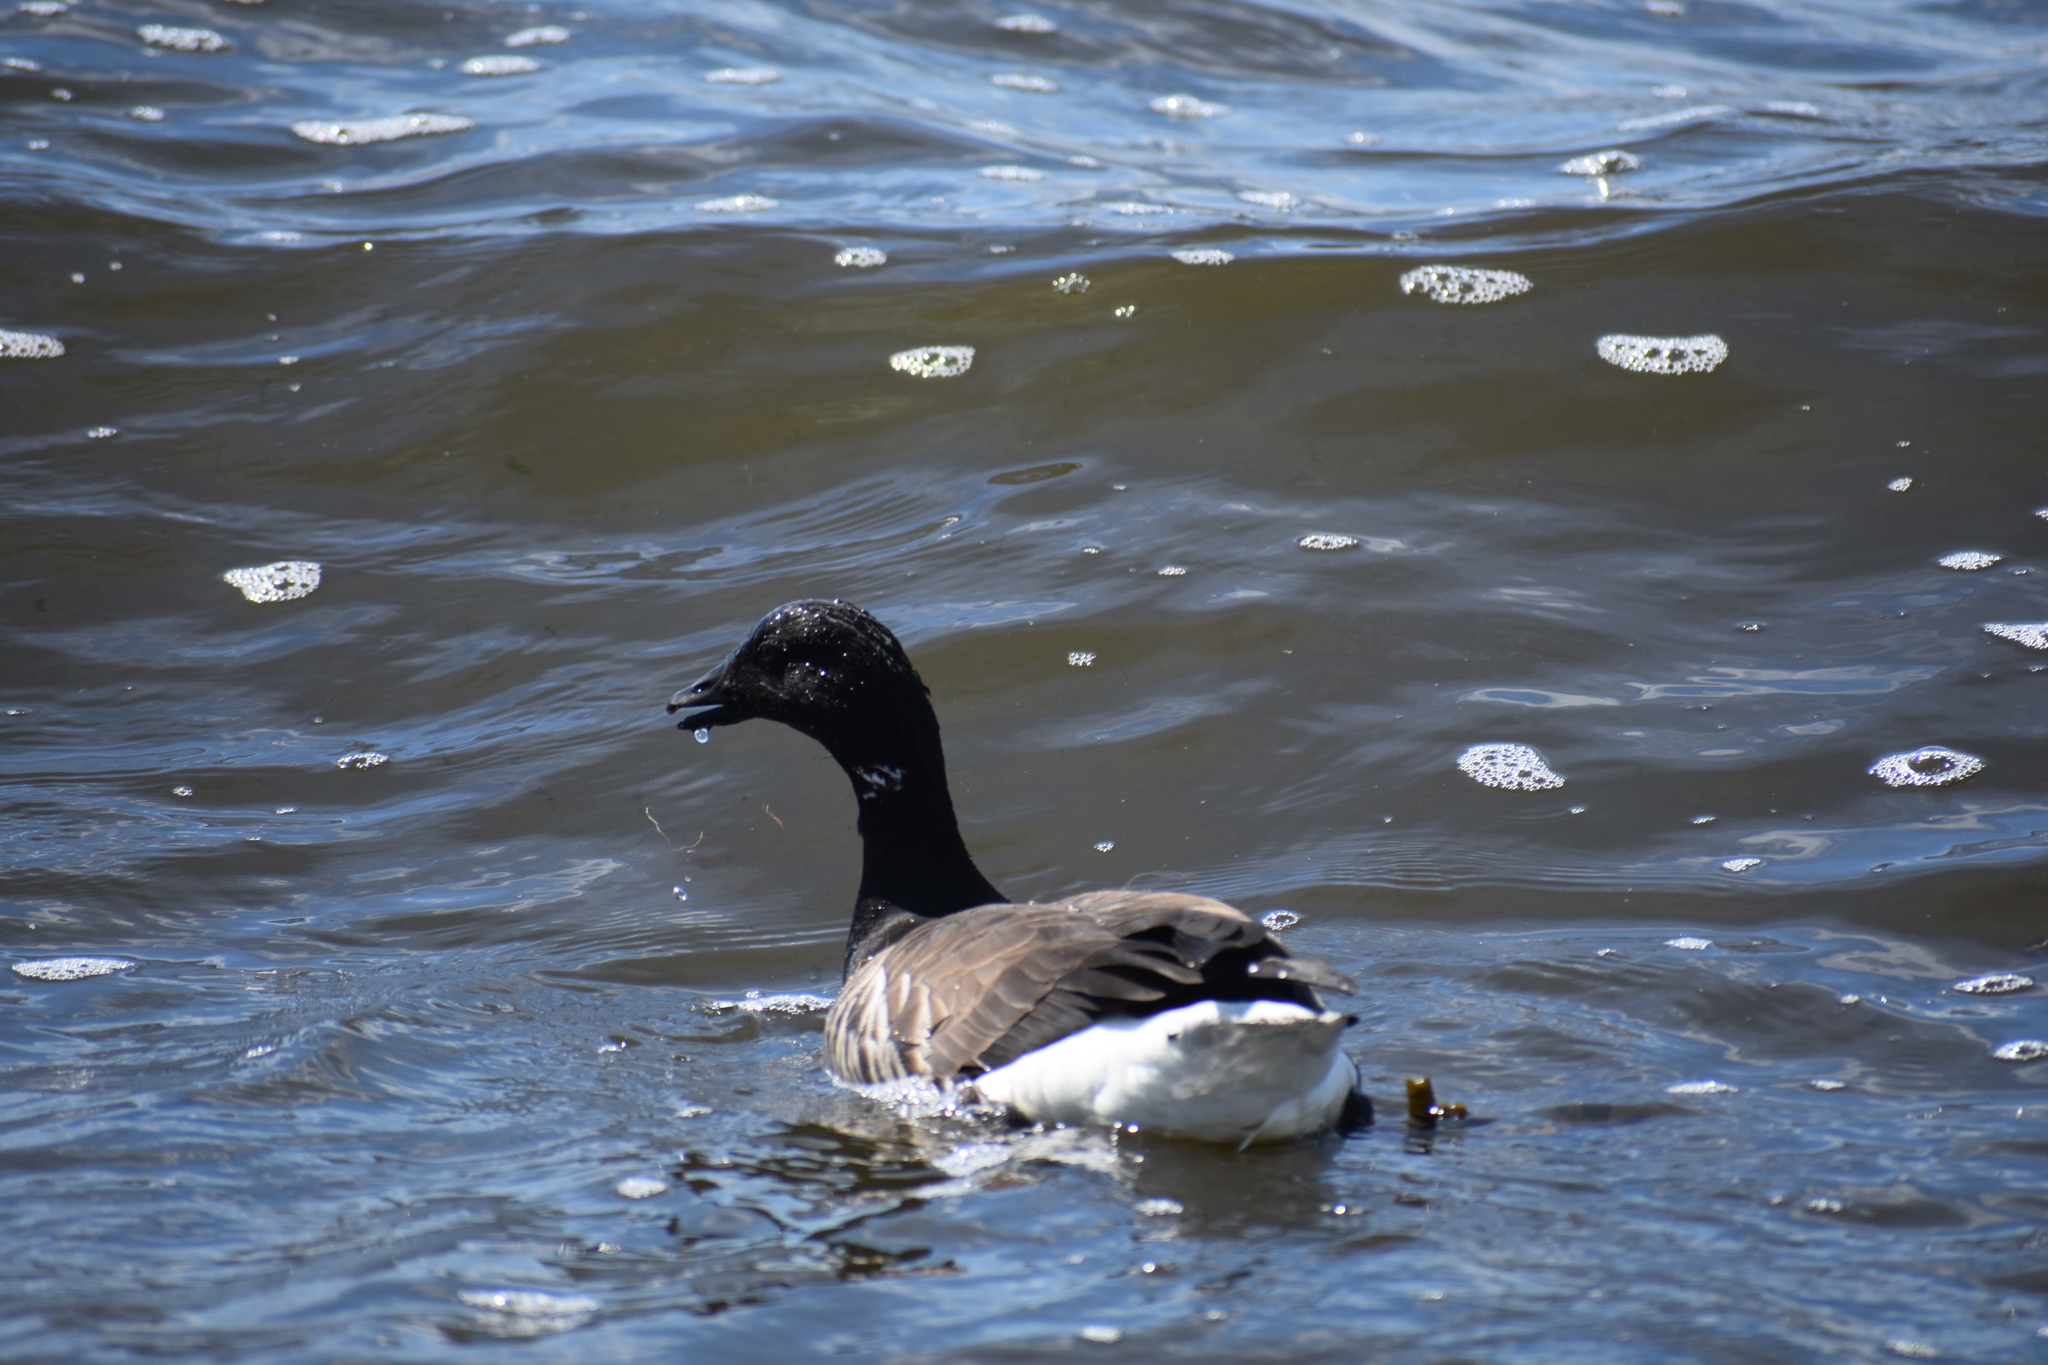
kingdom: Animalia
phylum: Chordata
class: Aves
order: Anseriformes
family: Anatidae
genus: Branta
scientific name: Branta bernicla
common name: Brant goose
